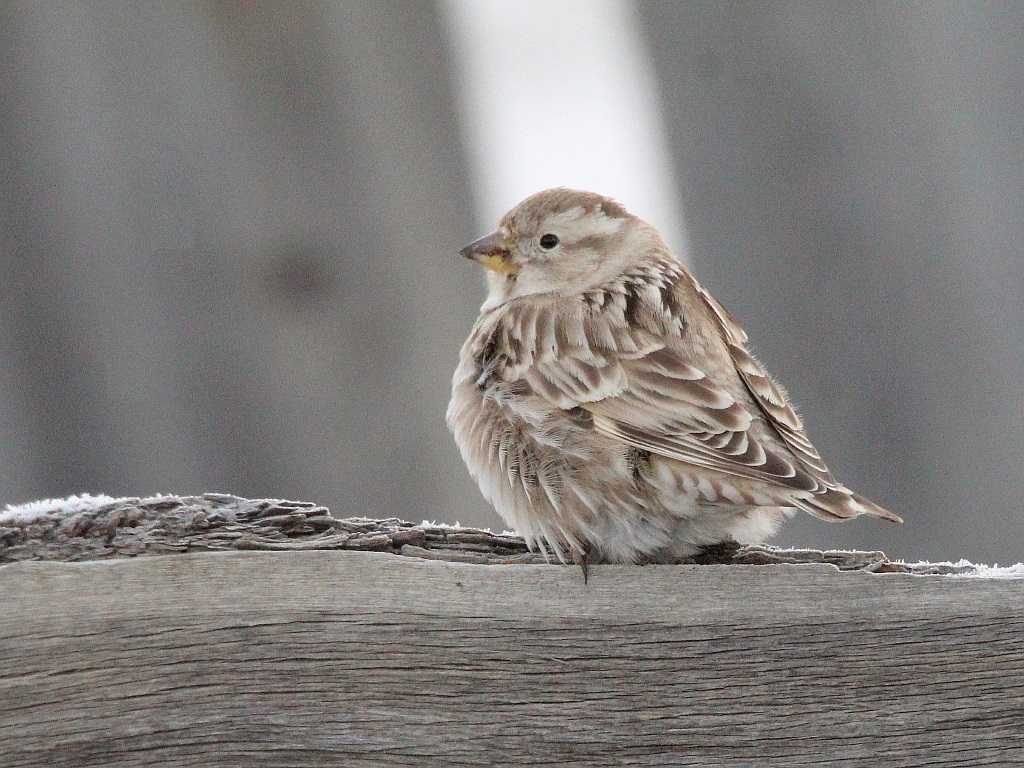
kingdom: Animalia
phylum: Chordata
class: Aves
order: Passeriformes
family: Passeridae
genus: Petronia
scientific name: Petronia petronia
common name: Rock sparrow
